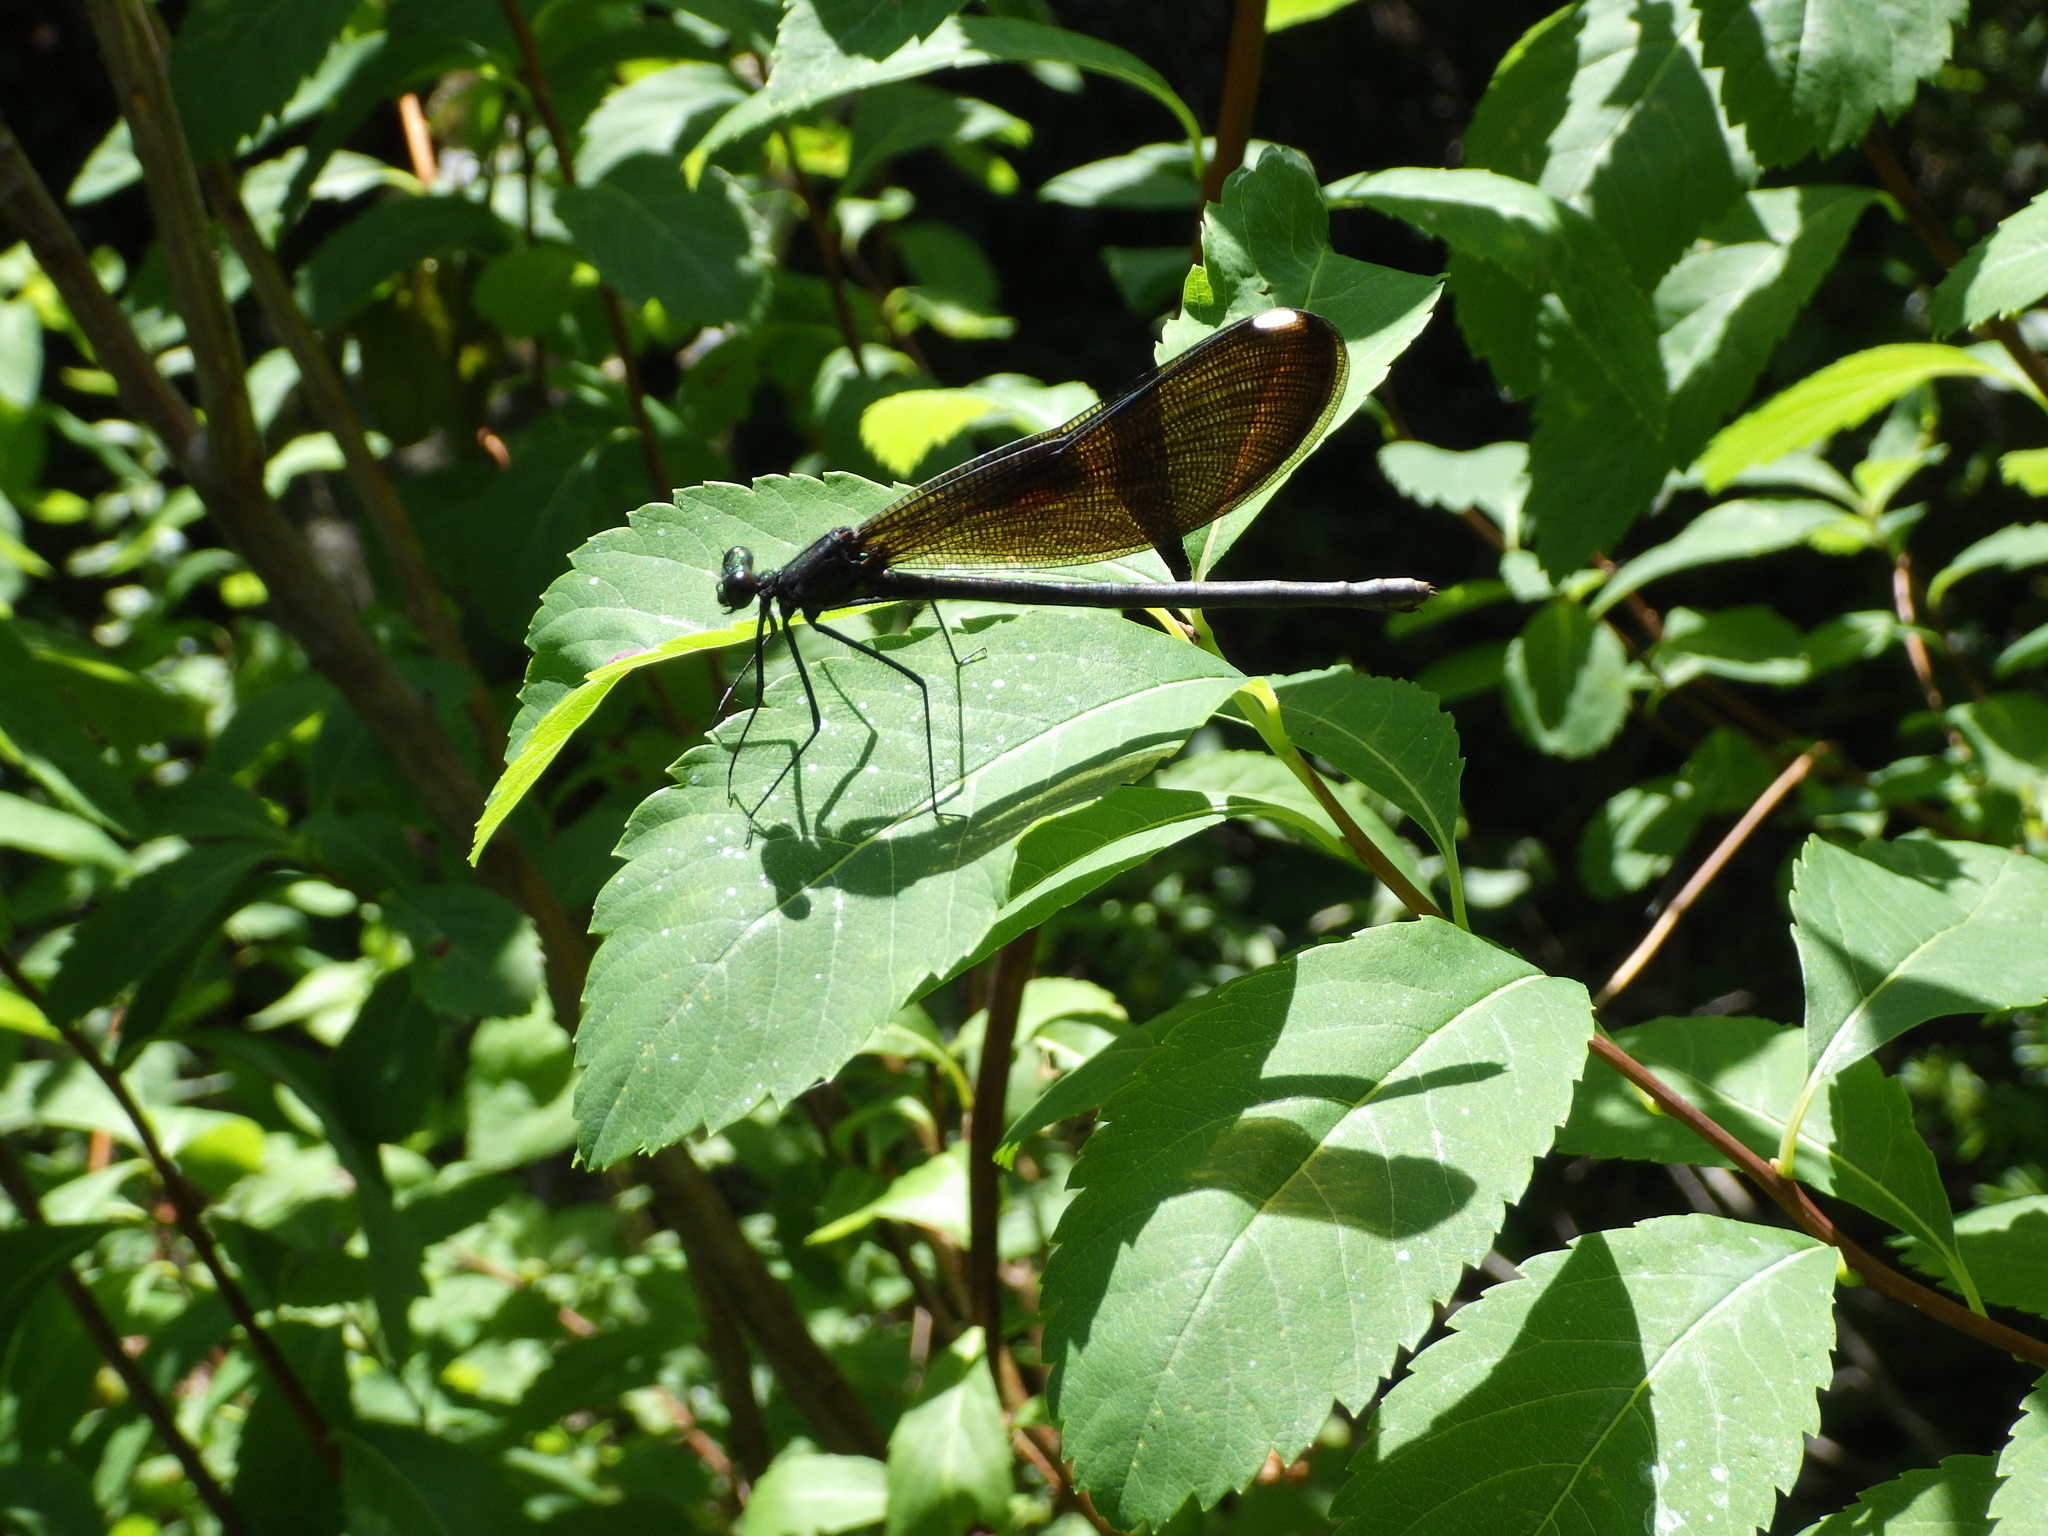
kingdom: Animalia
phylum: Arthropoda
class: Insecta
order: Odonata
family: Calopterygidae
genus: Calopteryx
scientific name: Calopteryx maculata
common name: Ebony jewelwing
